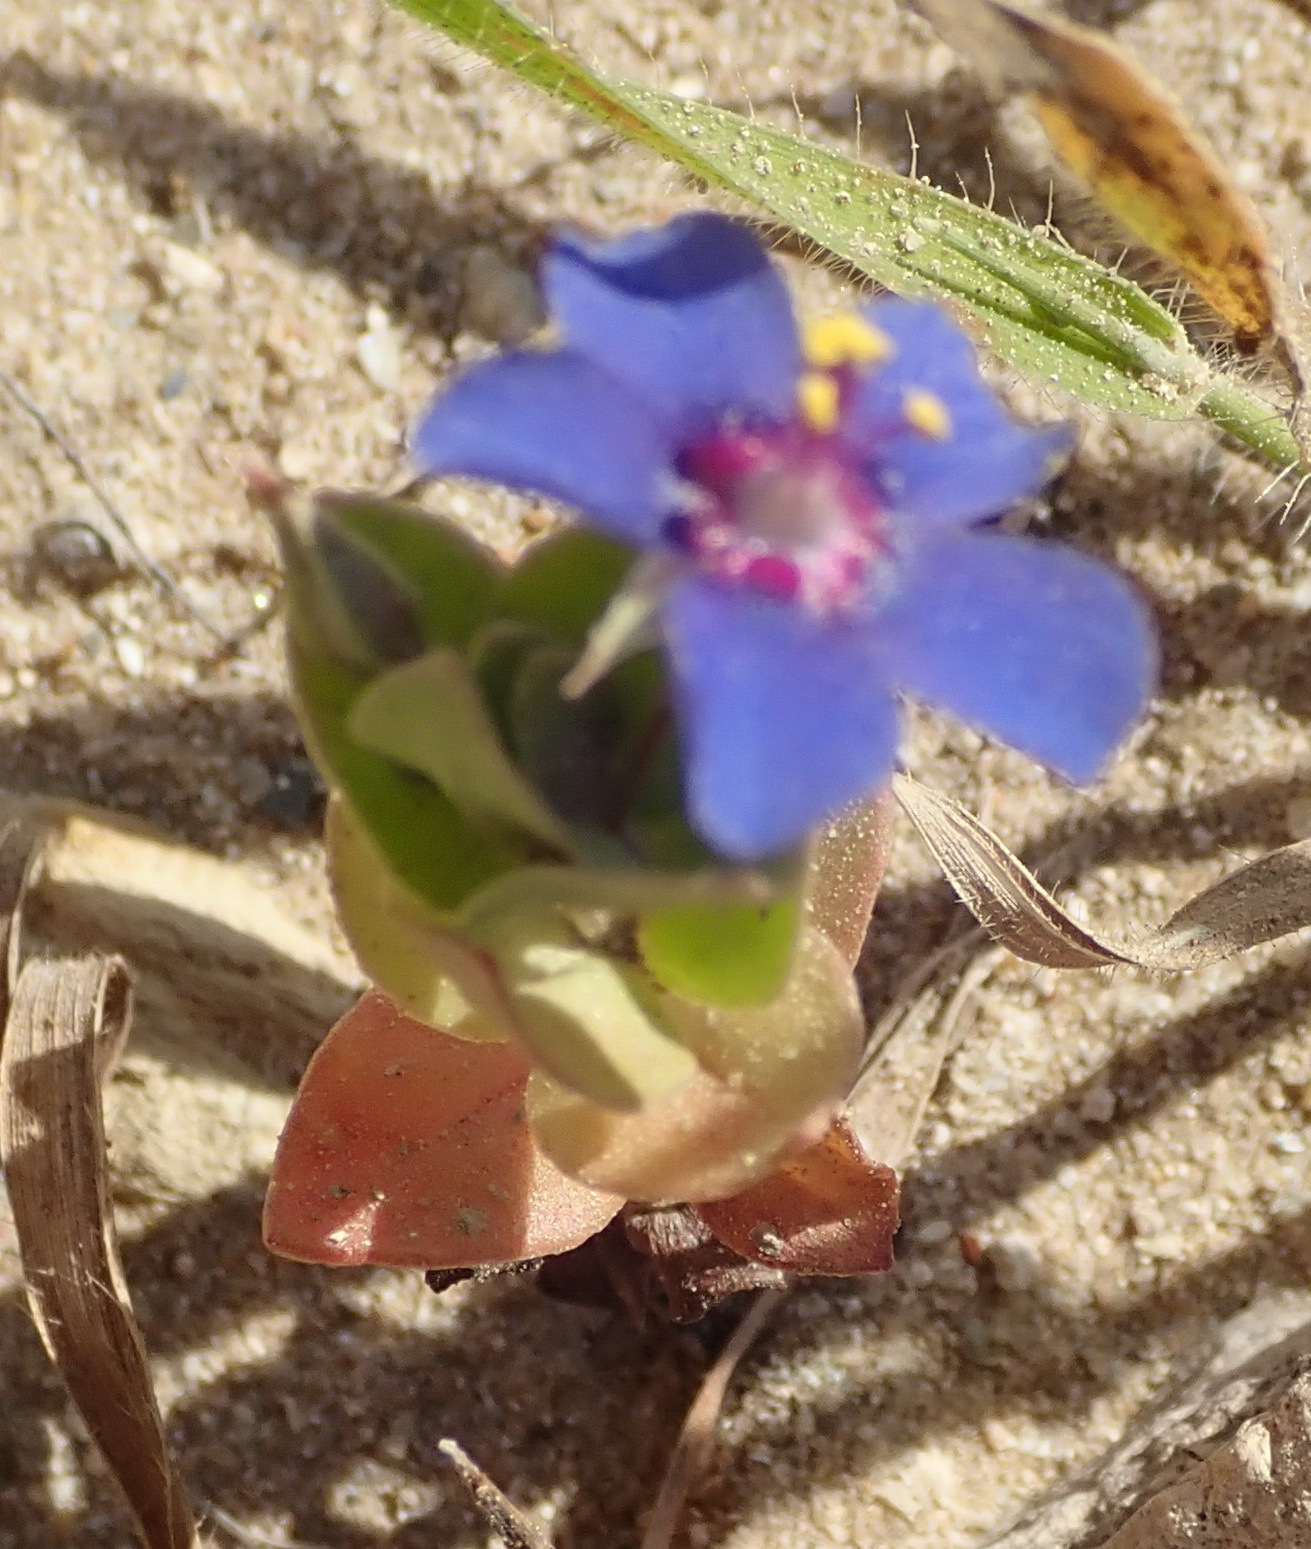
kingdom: Plantae
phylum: Tracheophyta
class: Magnoliopsida
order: Ericales
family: Primulaceae
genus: Lysimachia
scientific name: Lysimachia loeflingii
